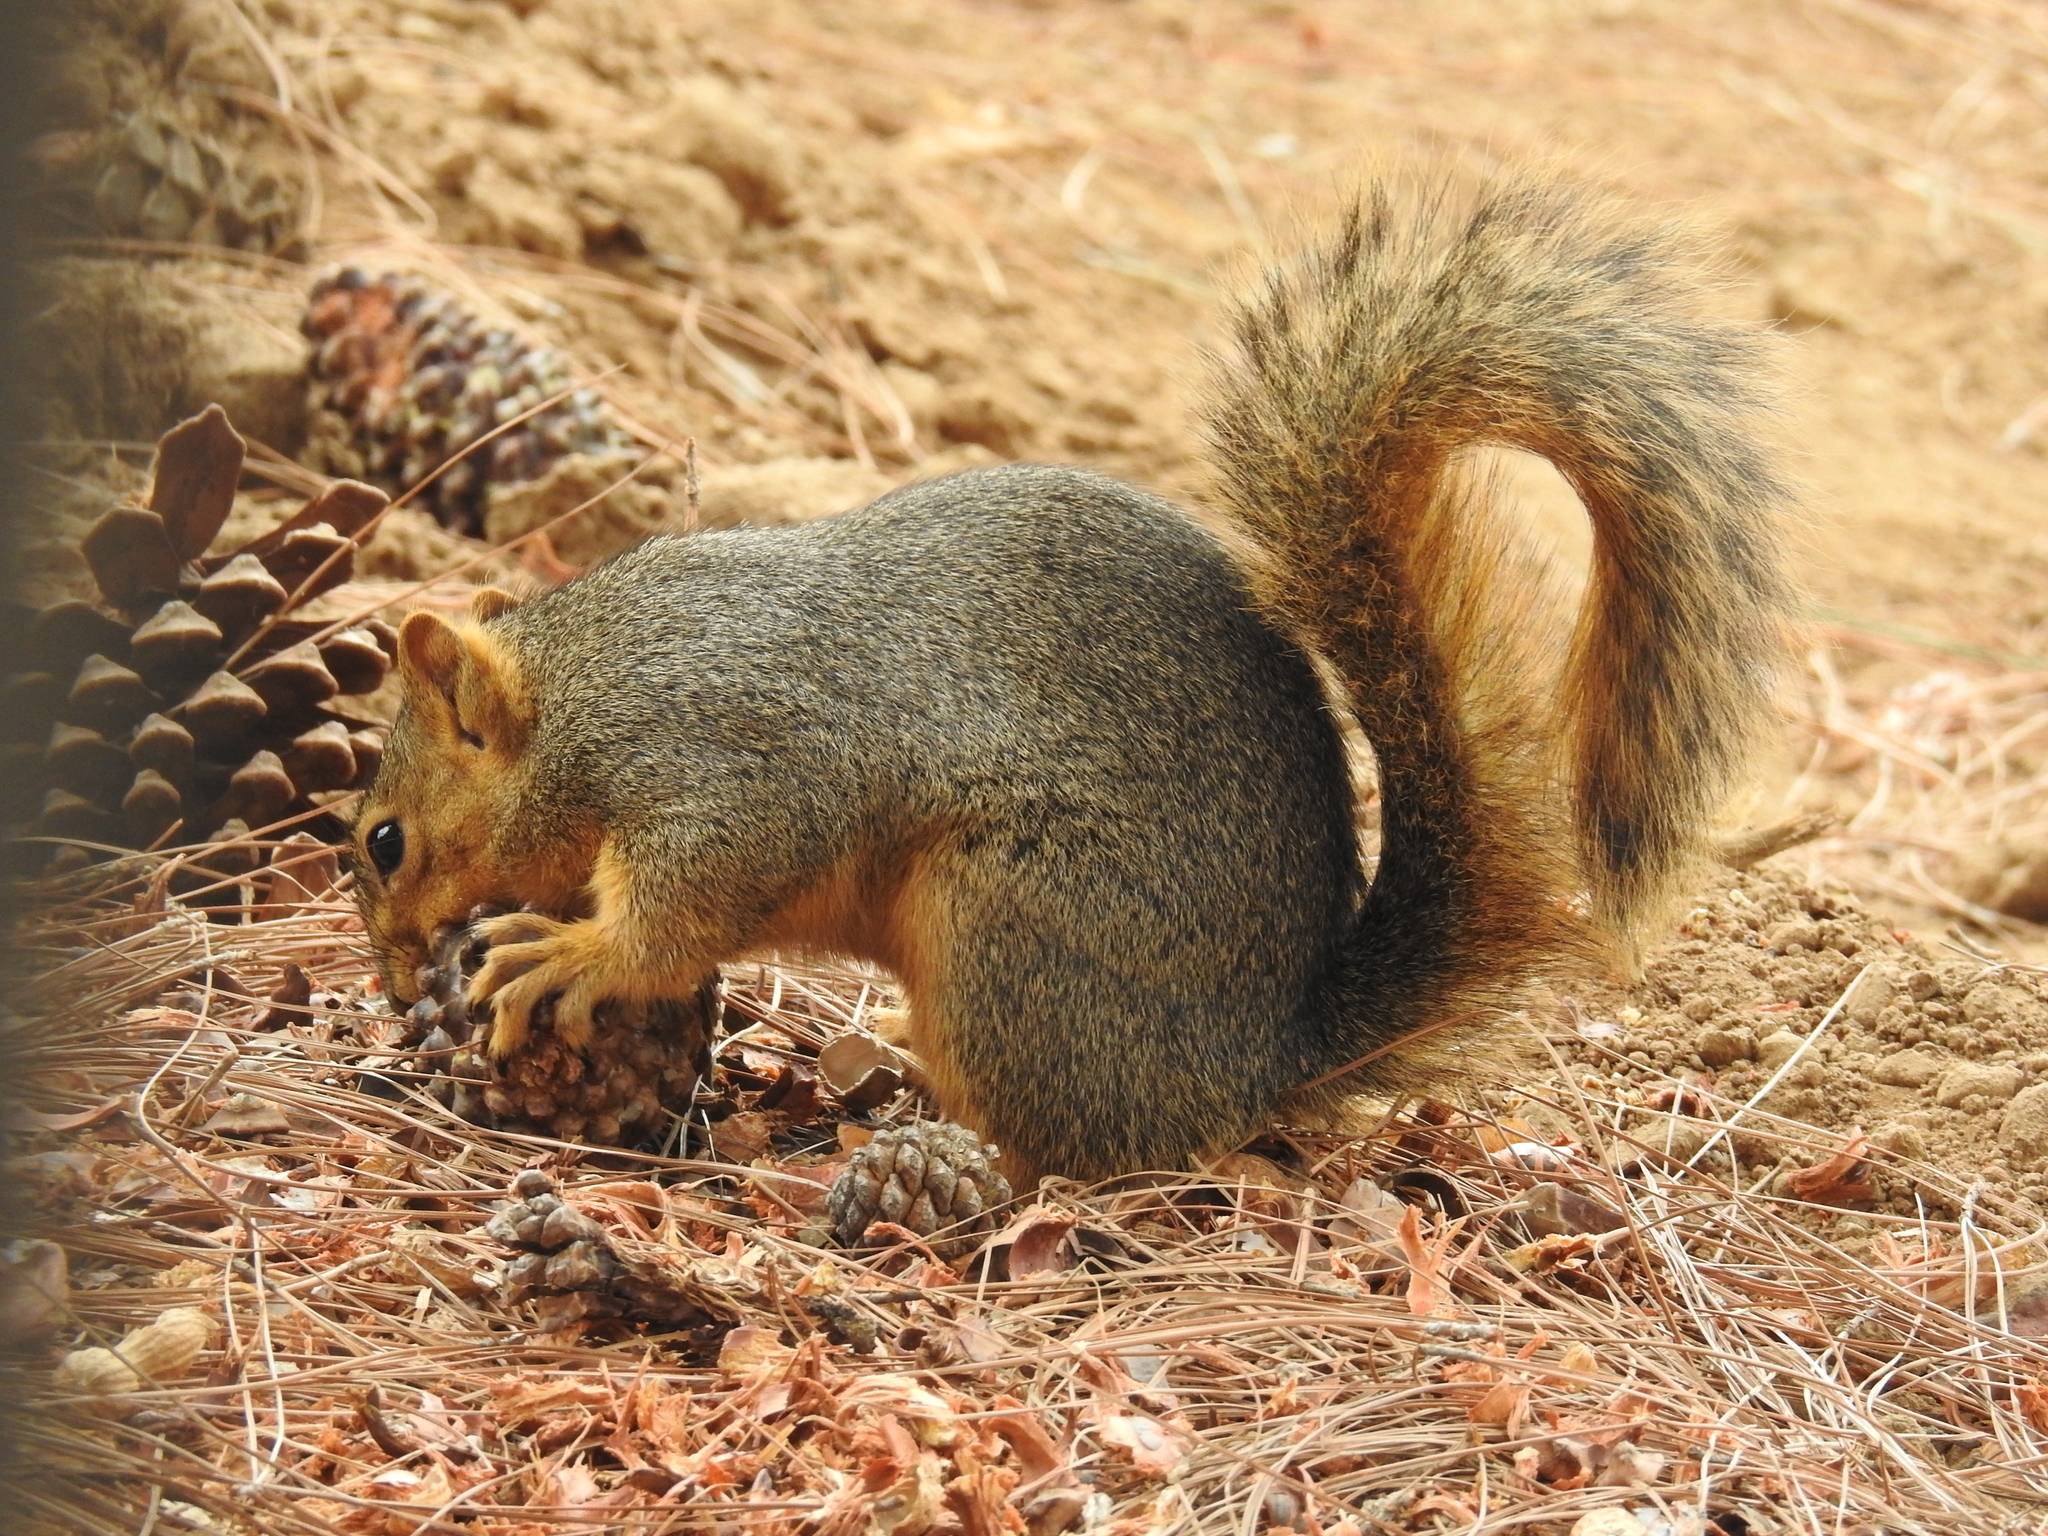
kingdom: Animalia
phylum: Chordata
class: Mammalia
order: Rodentia
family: Sciuridae
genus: Sciurus
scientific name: Sciurus niger
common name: Fox squirrel
